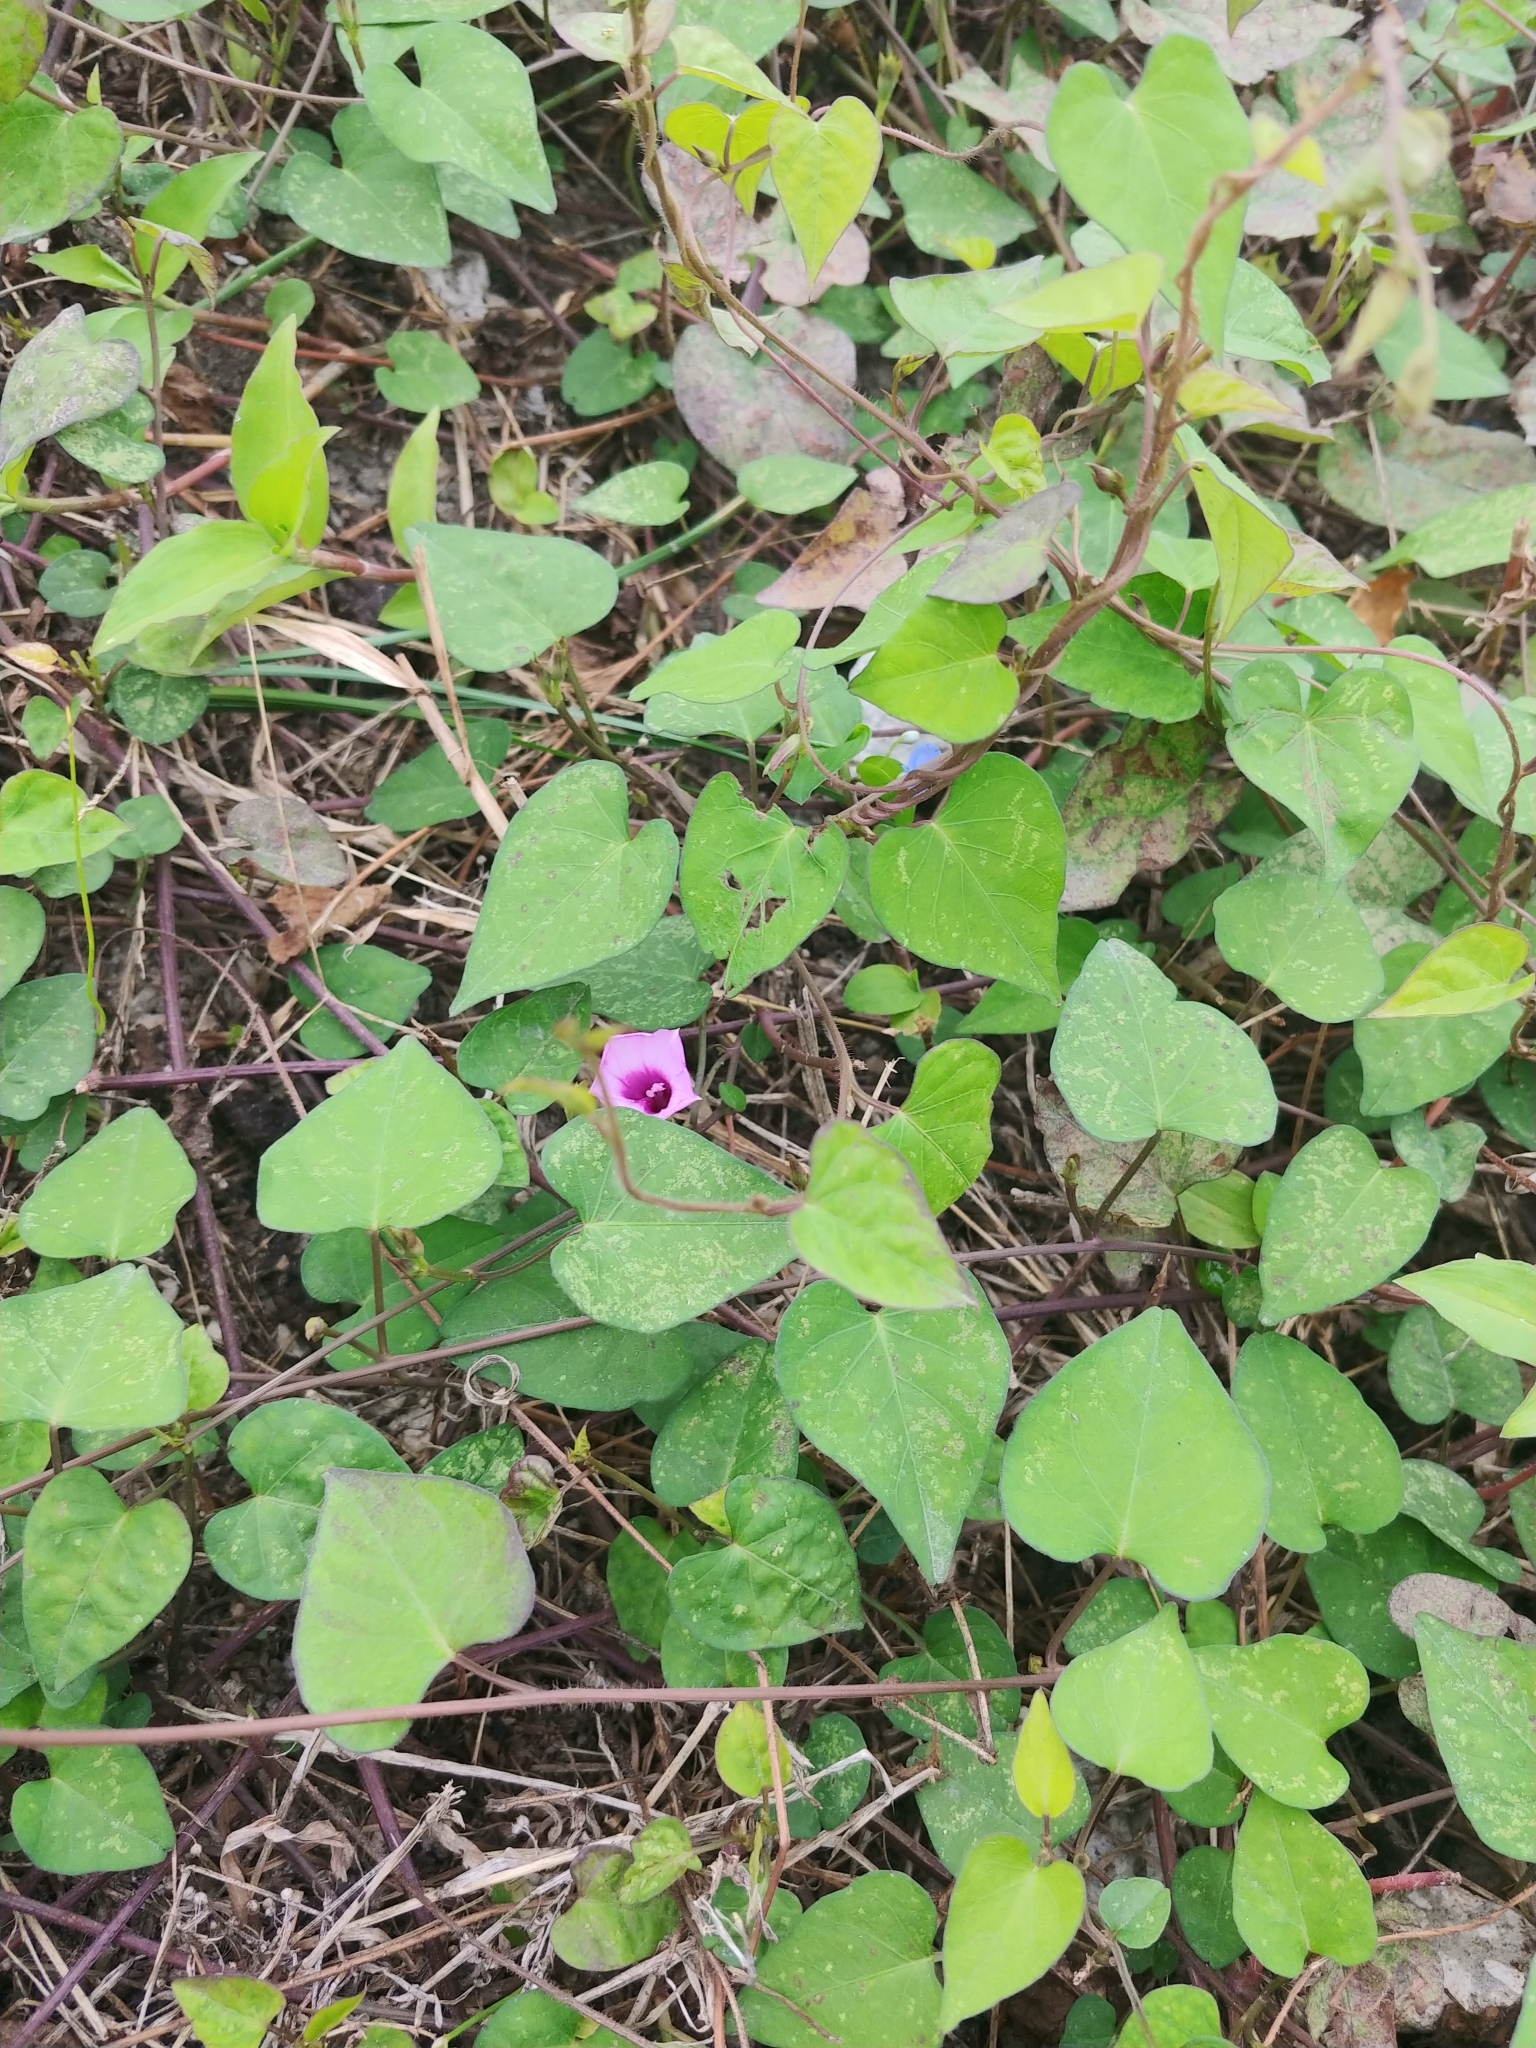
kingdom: Plantae
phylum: Tracheophyta
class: Magnoliopsida
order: Solanales
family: Convolvulaceae
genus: Ipomoea
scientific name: Ipomoea triloba
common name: Little-bell
